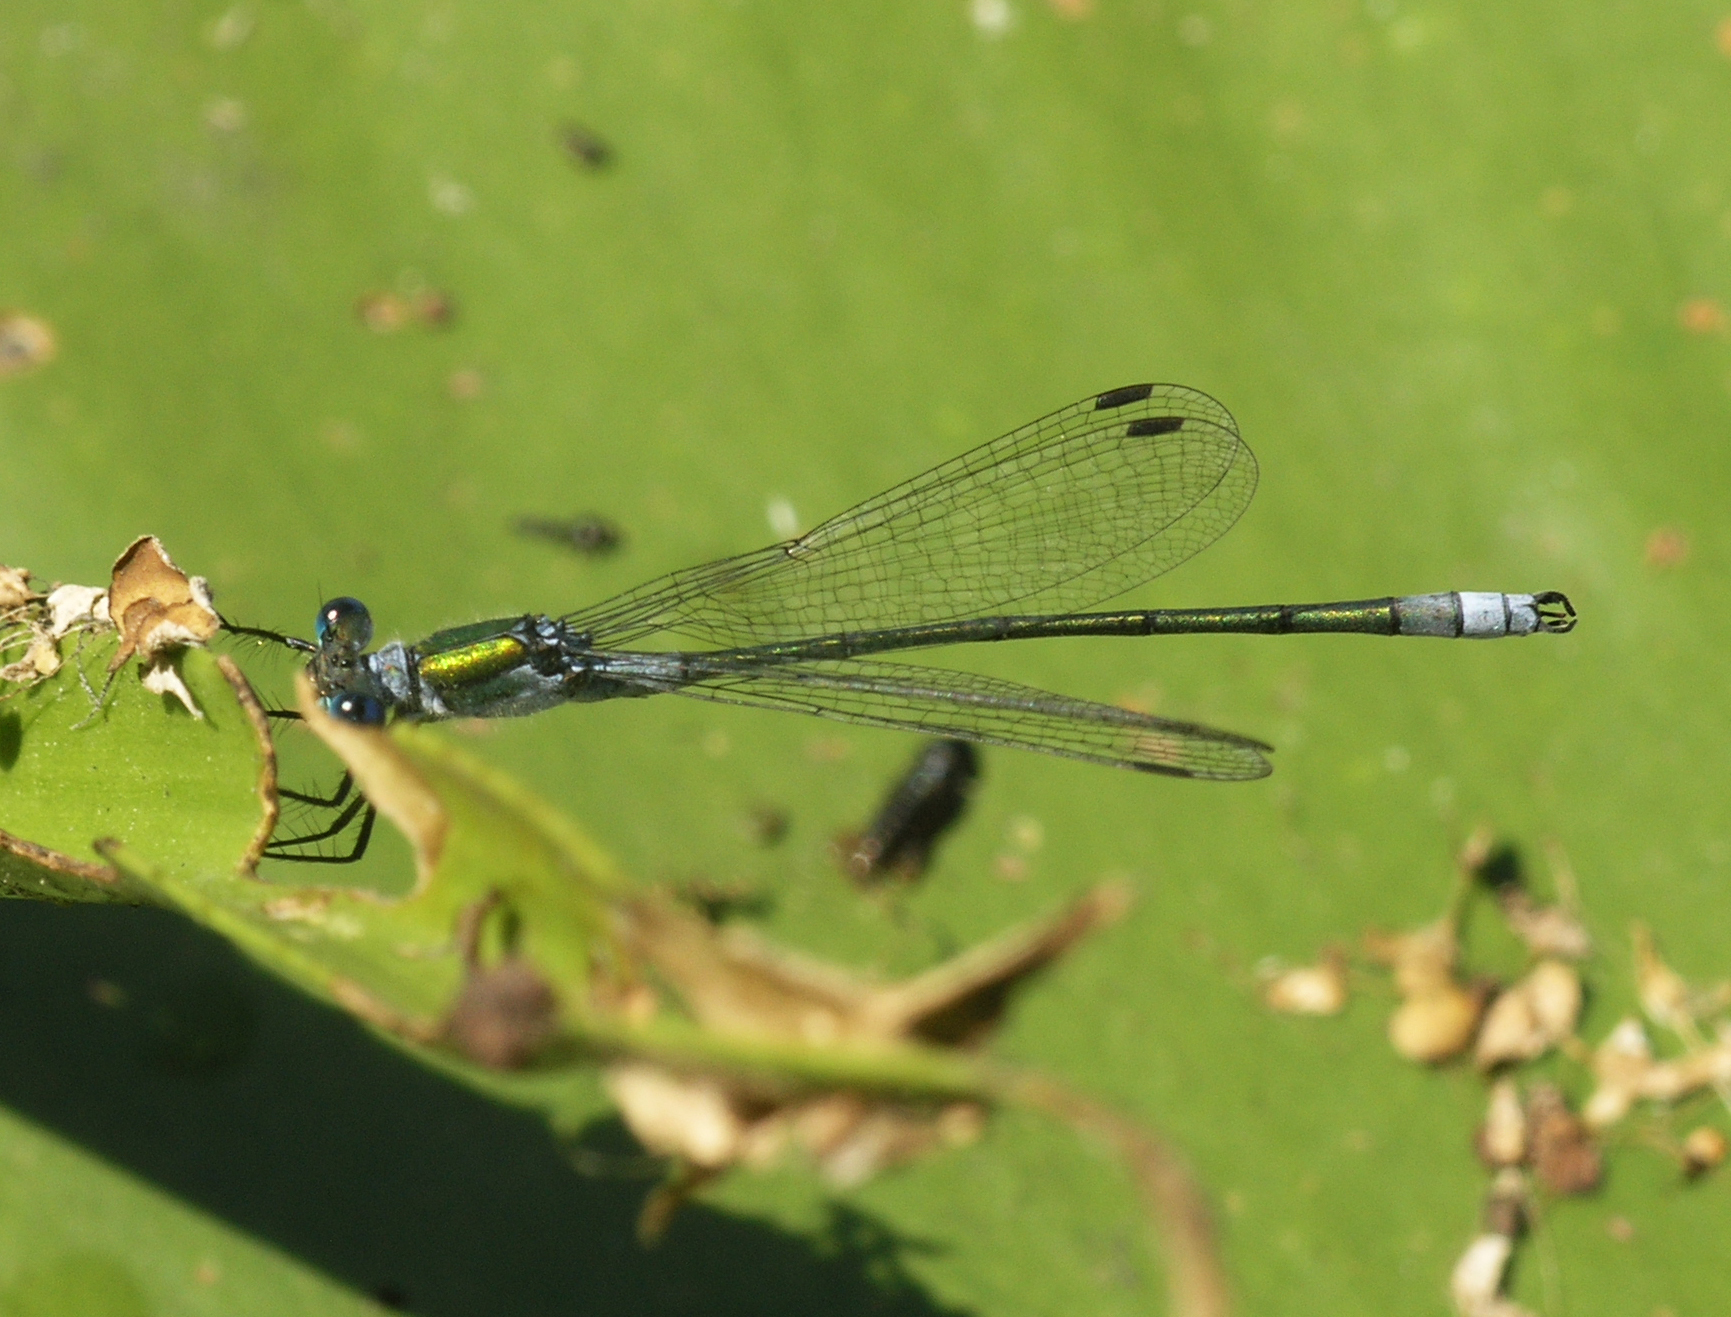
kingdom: Animalia
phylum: Arthropoda
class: Insecta
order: Odonata
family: Lestidae
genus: Lestes
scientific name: Lestes sponsa
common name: Common spreadwing
